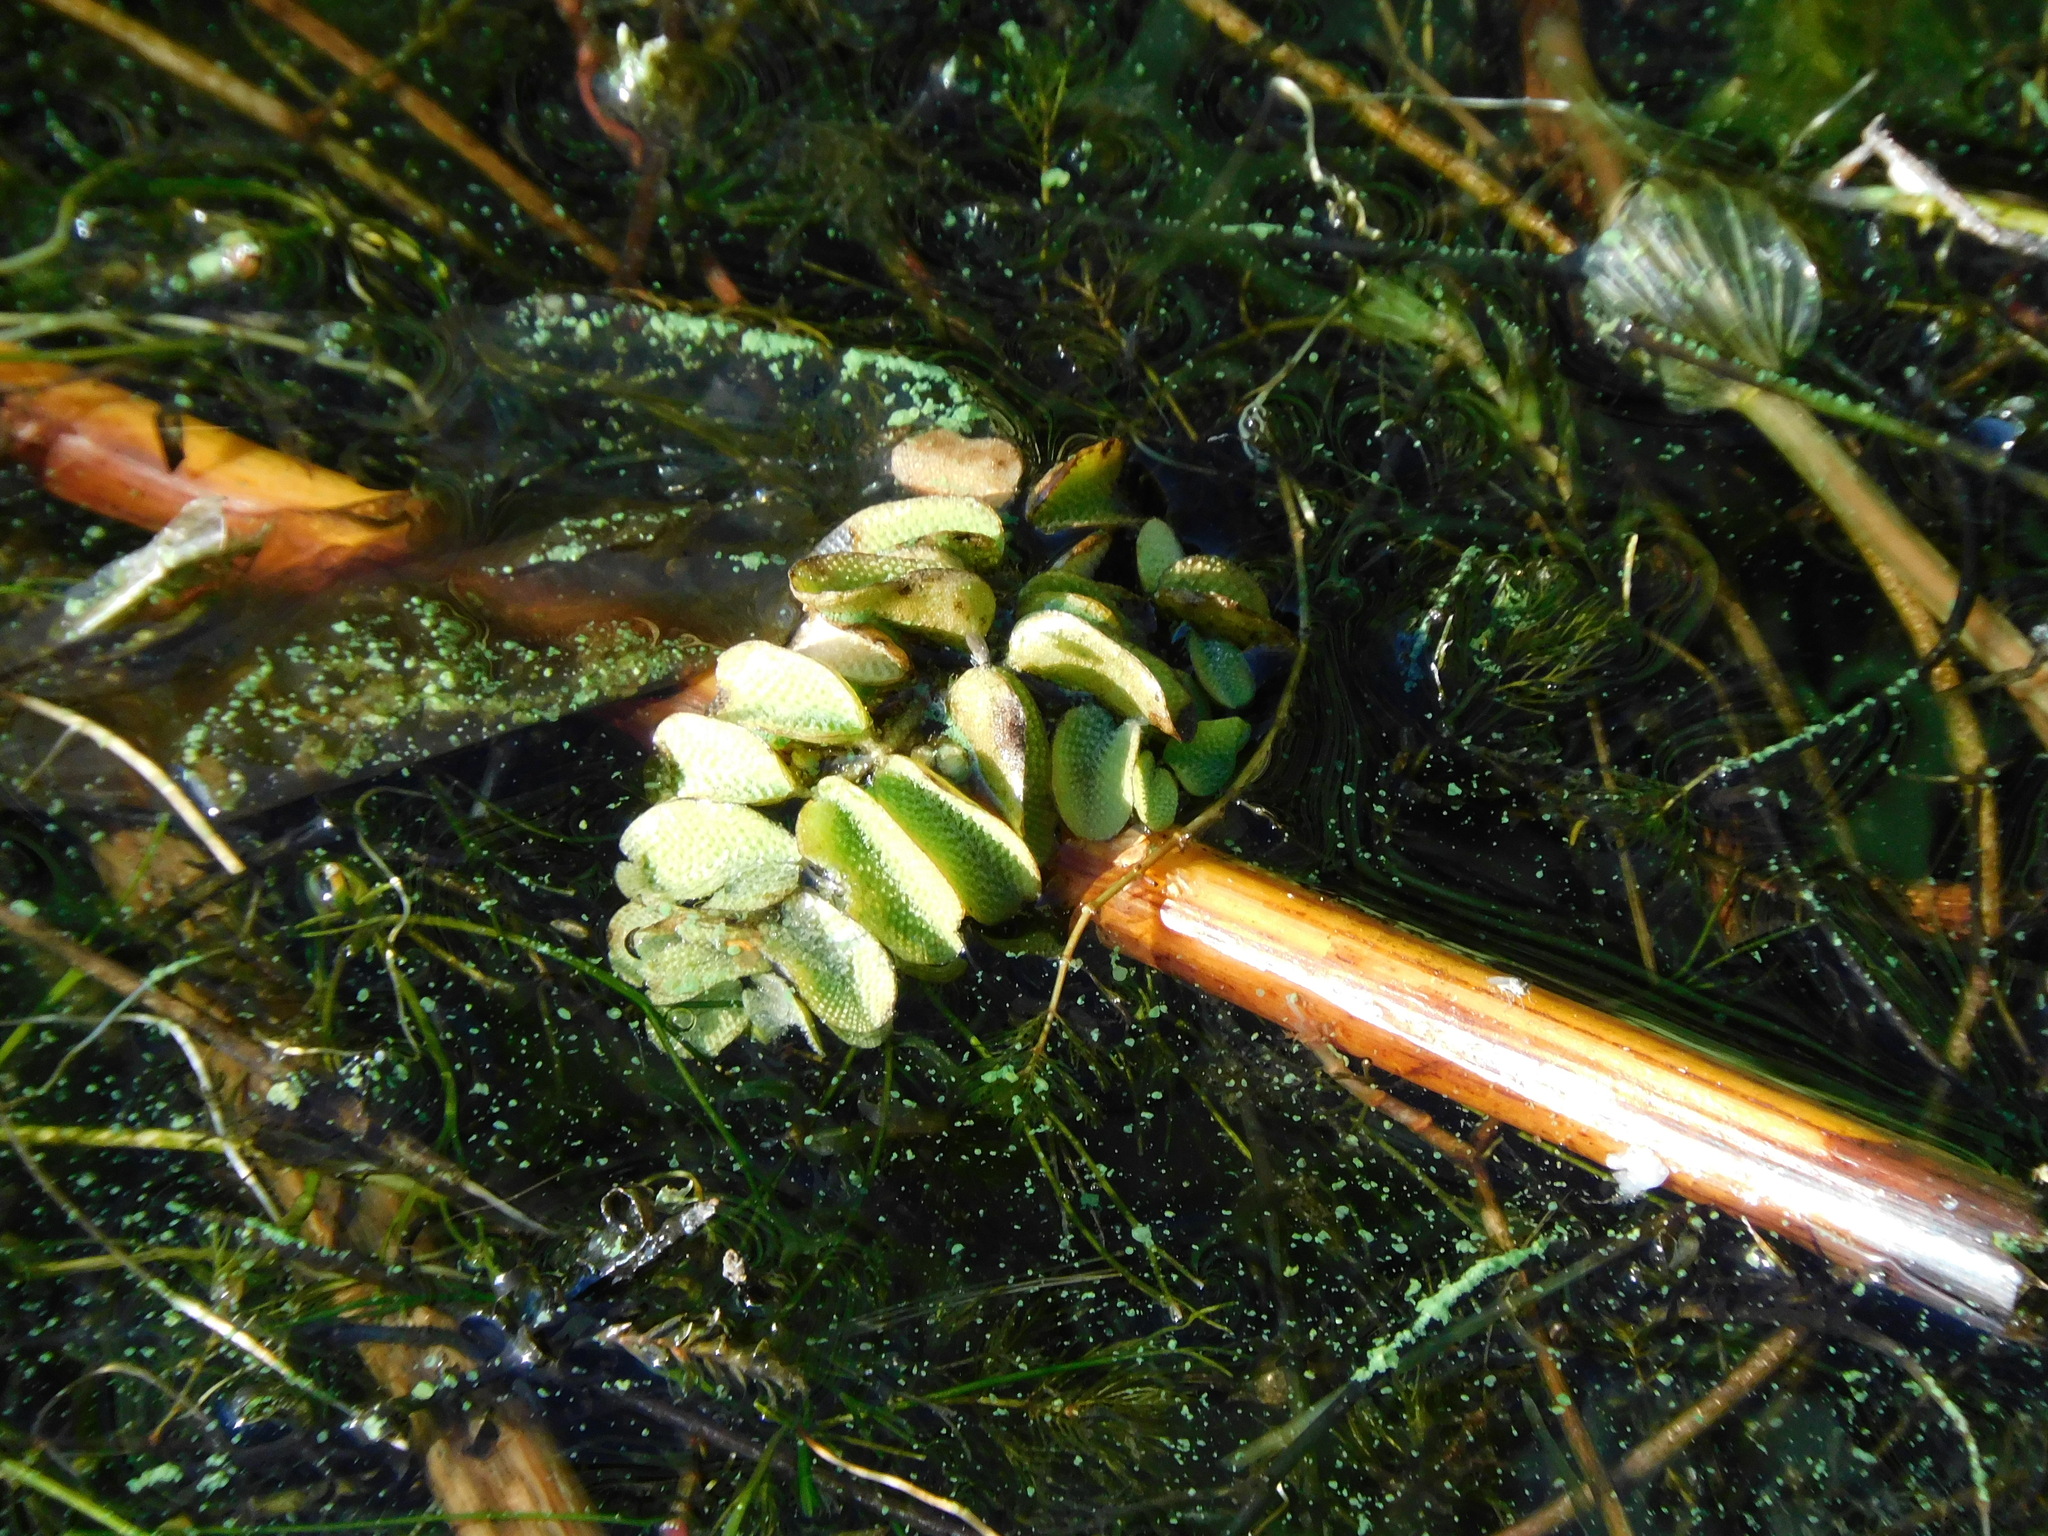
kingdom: Plantae
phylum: Tracheophyta
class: Polypodiopsida
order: Salviniales
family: Salviniaceae
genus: Salvinia
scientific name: Salvinia natans
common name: Floating fern
